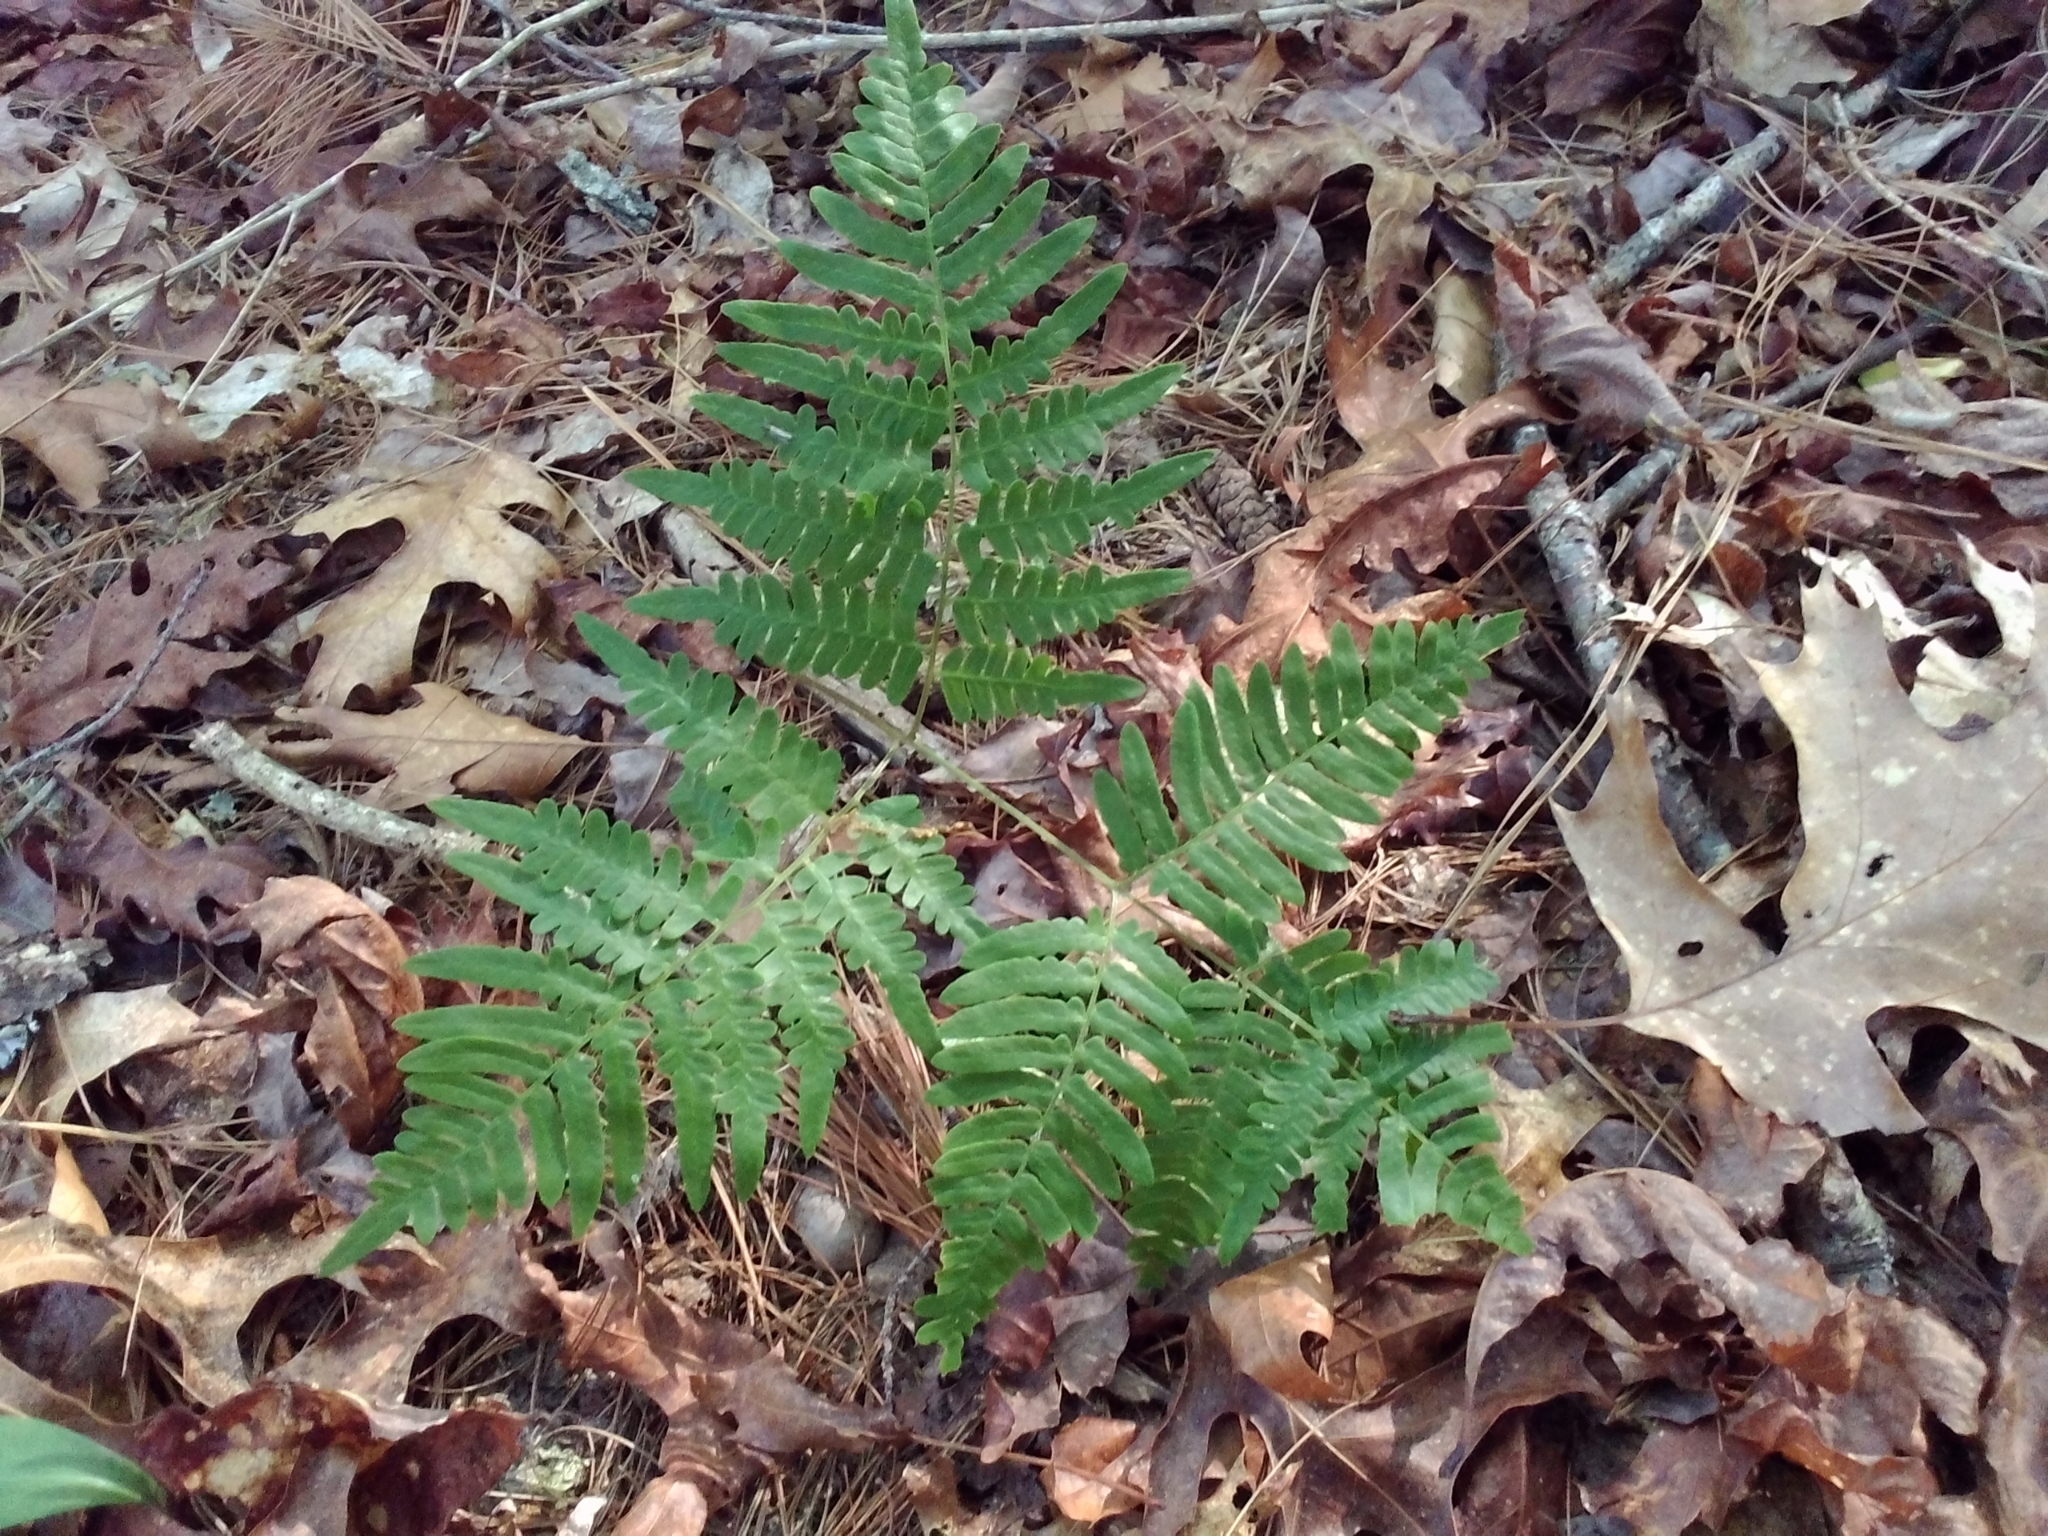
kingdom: Plantae
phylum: Tracheophyta
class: Polypodiopsida
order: Polypodiales
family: Dennstaedtiaceae
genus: Pteridium
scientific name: Pteridium aquilinum
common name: Bracken
